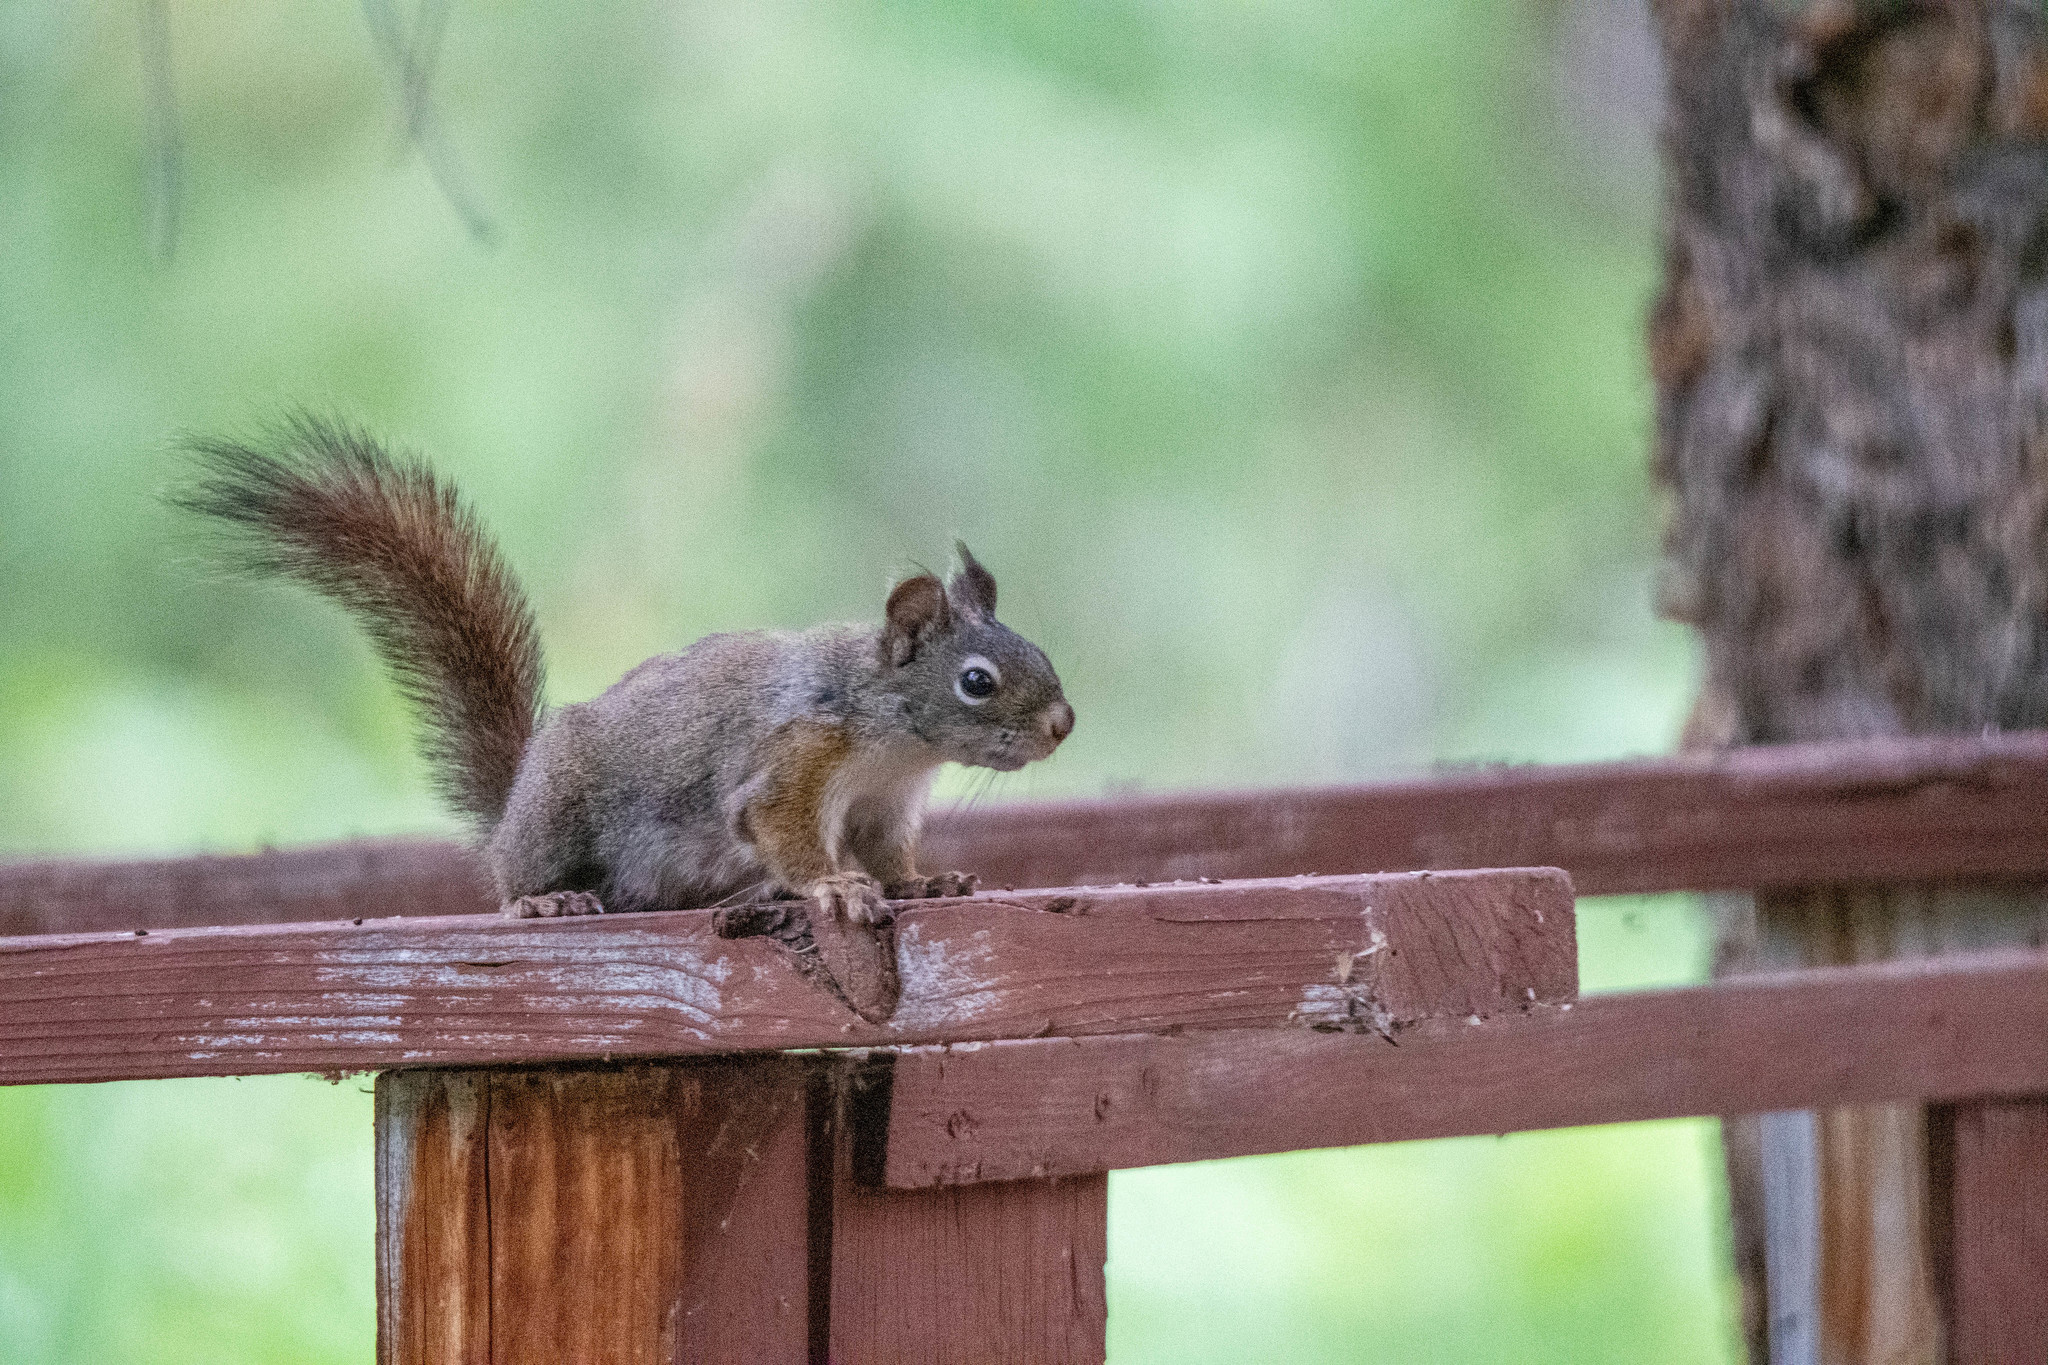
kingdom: Animalia
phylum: Chordata
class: Mammalia
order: Rodentia
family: Sciuridae
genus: Tamiasciurus
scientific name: Tamiasciurus hudsonicus
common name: Red squirrel
